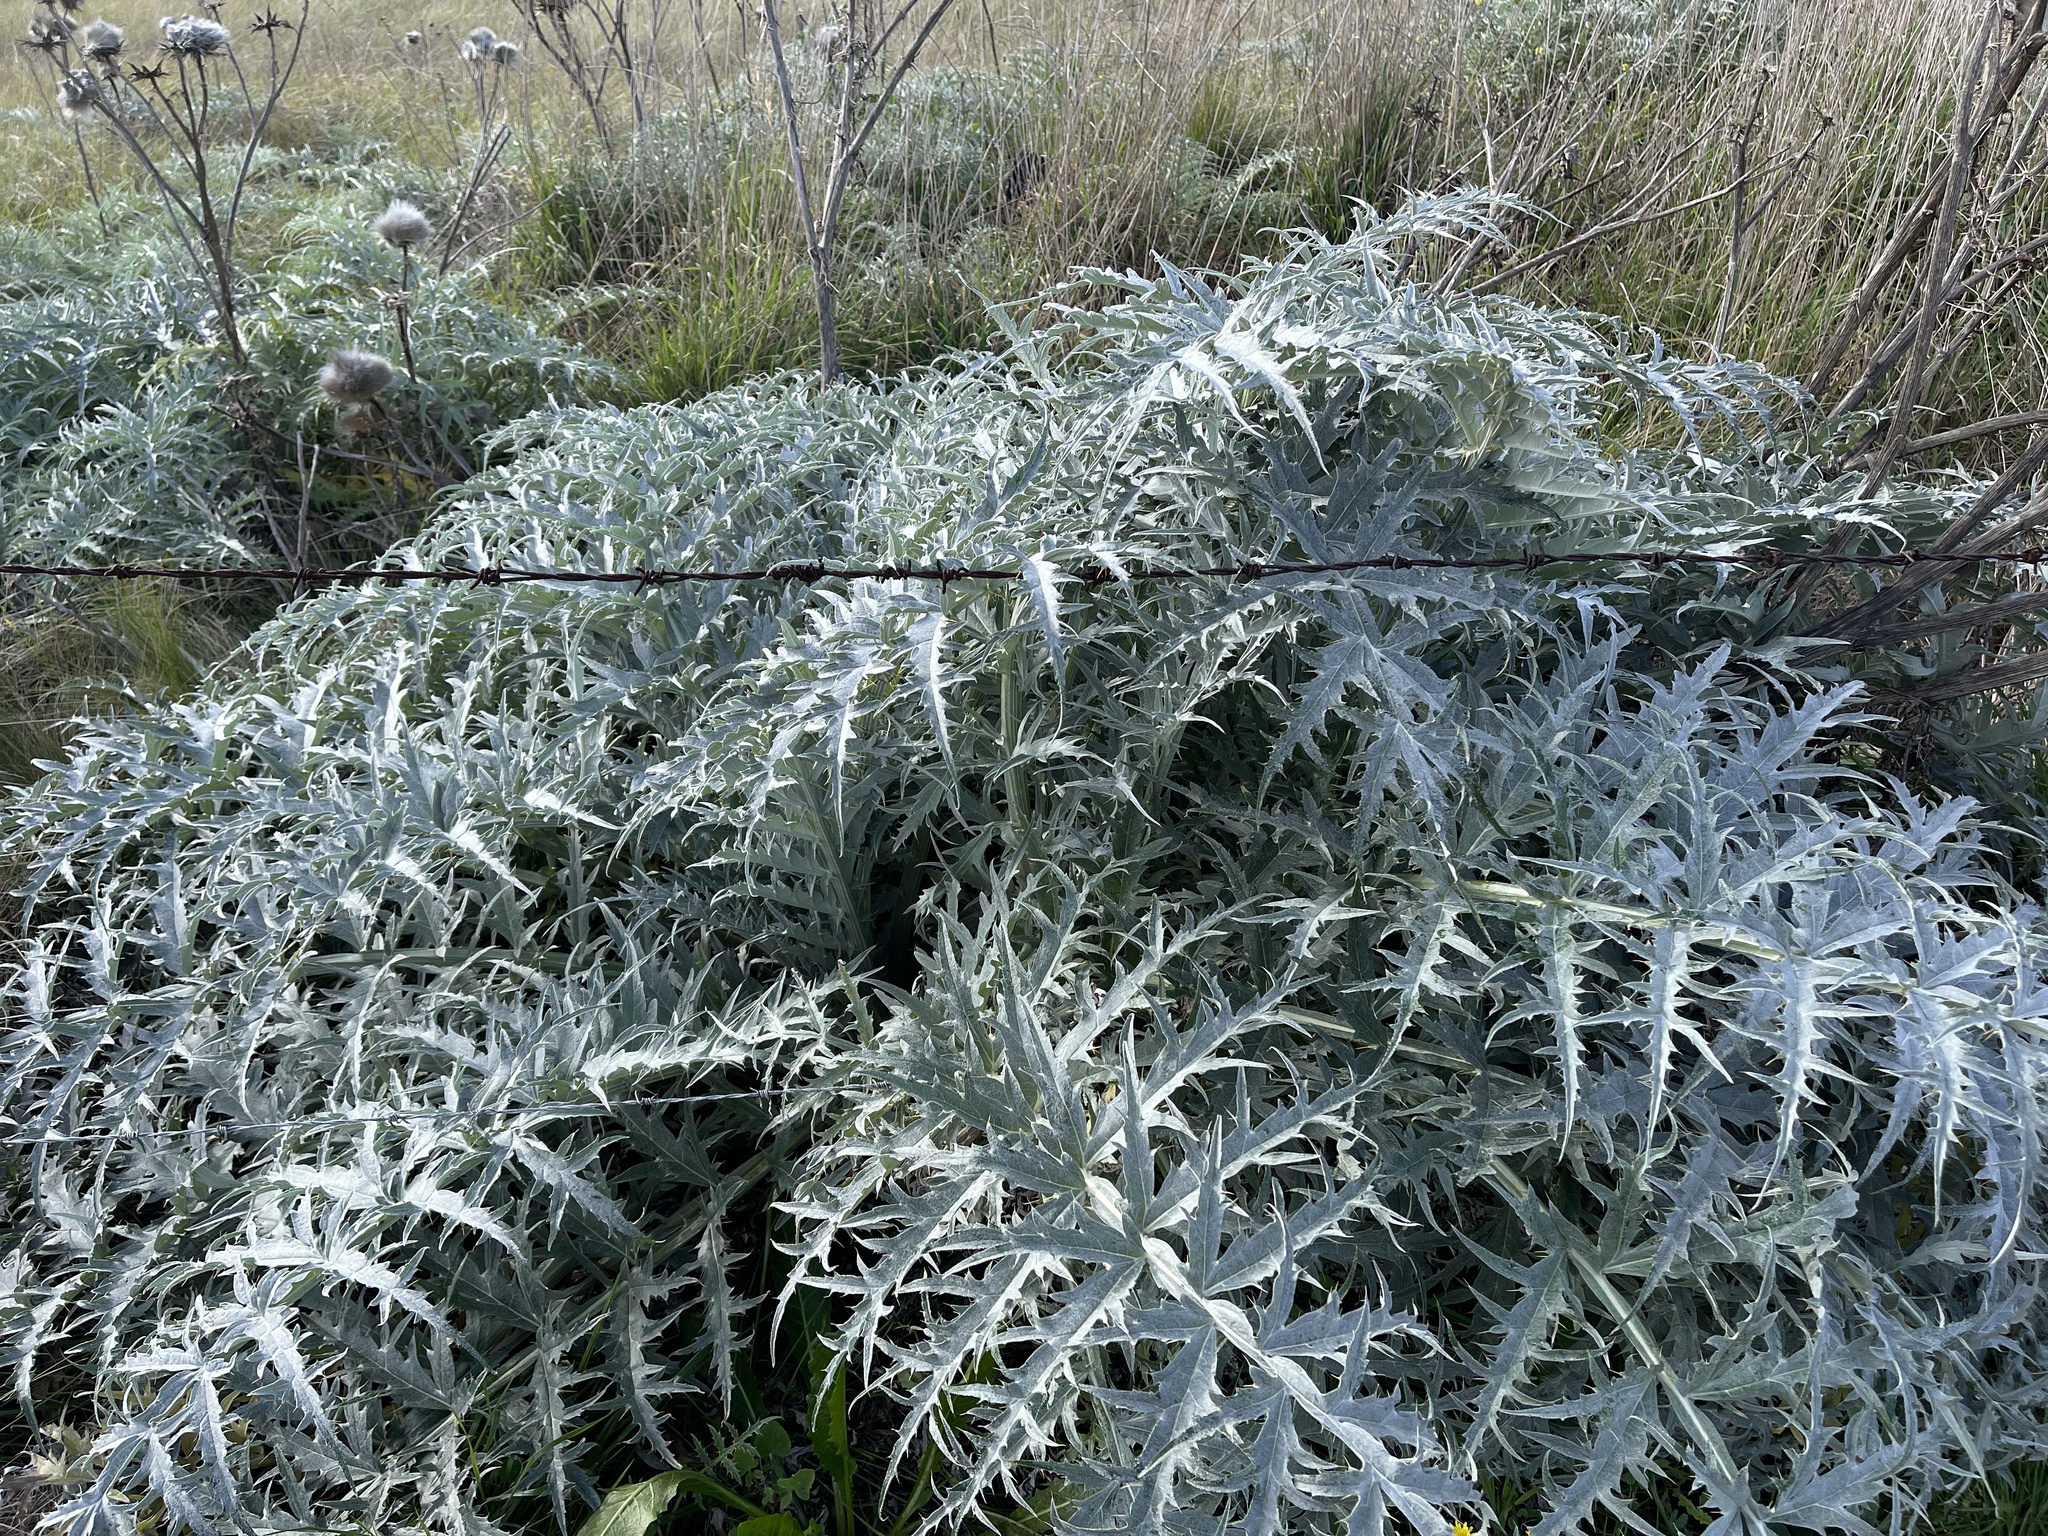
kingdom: Plantae
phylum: Tracheophyta
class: Magnoliopsida
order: Asterales
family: Asteraceae
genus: Cynara
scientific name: Cynara cardunculus
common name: Globe artichoke
